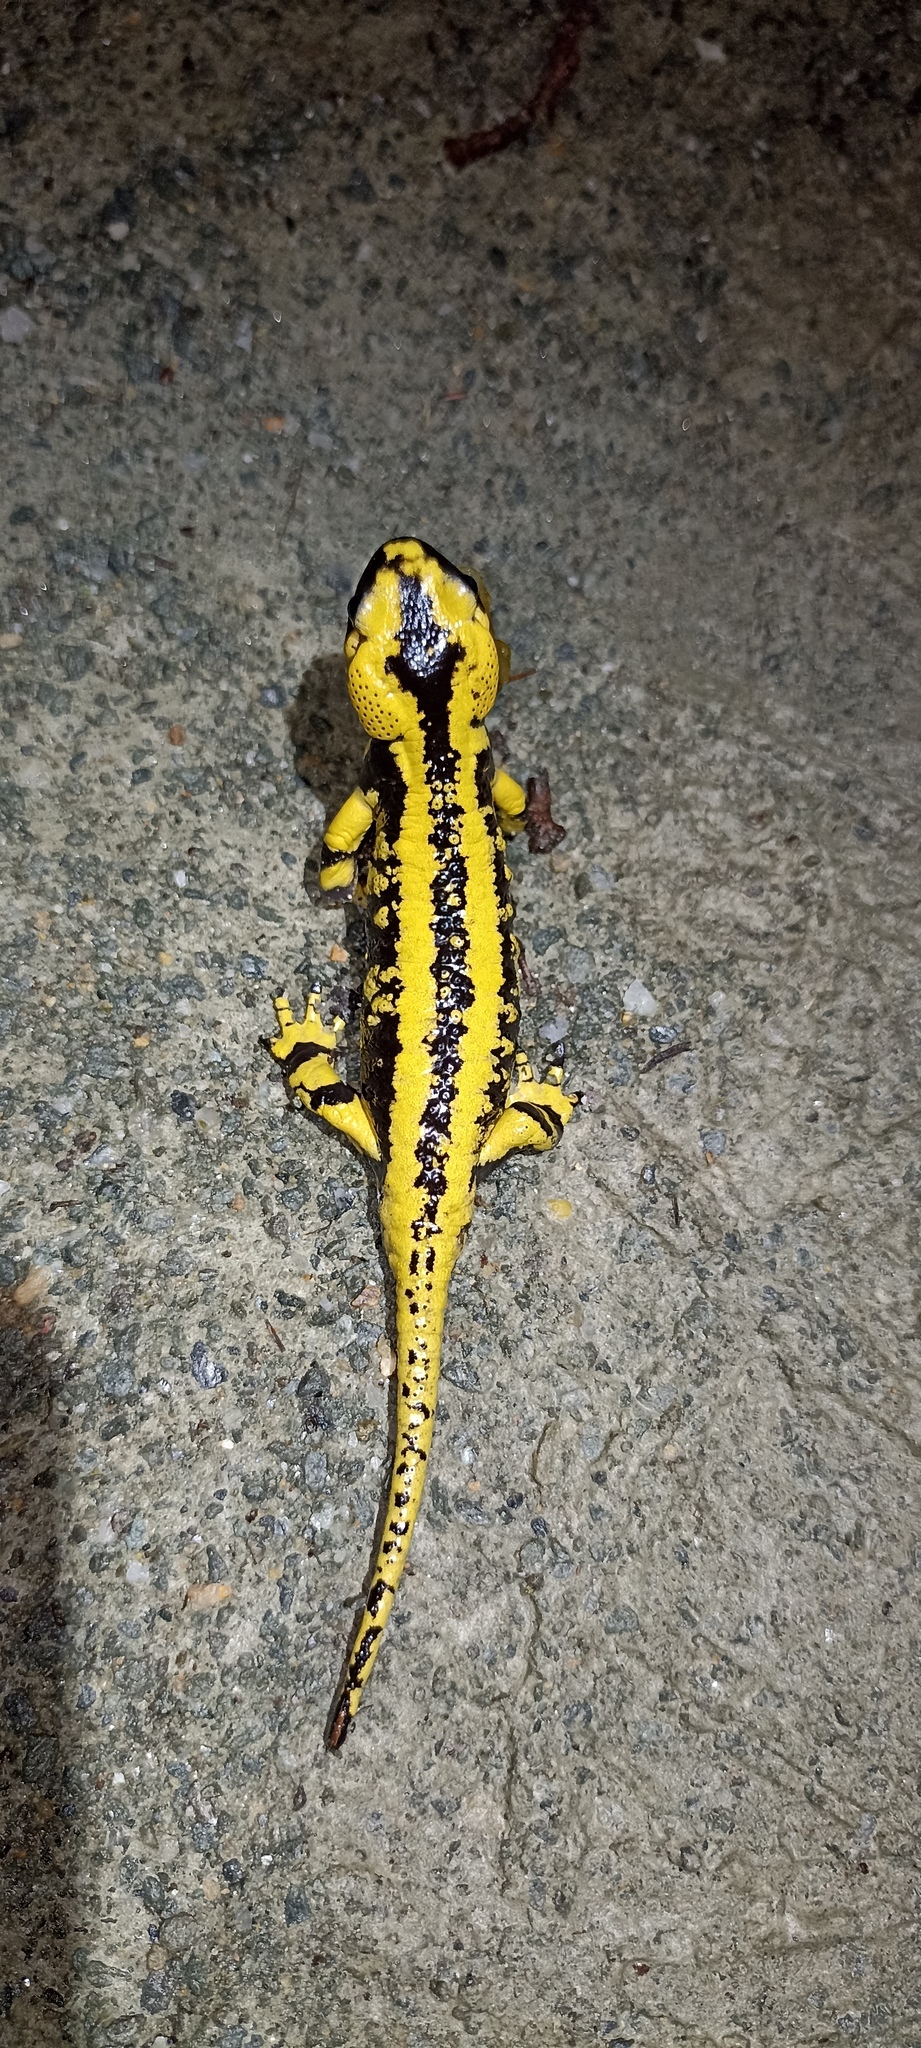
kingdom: Animalia
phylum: Chordata
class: Amphibia
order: Caudata
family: Salamandridae
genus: Salamandra
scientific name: Salamandra salamandra
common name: Fire salamander
